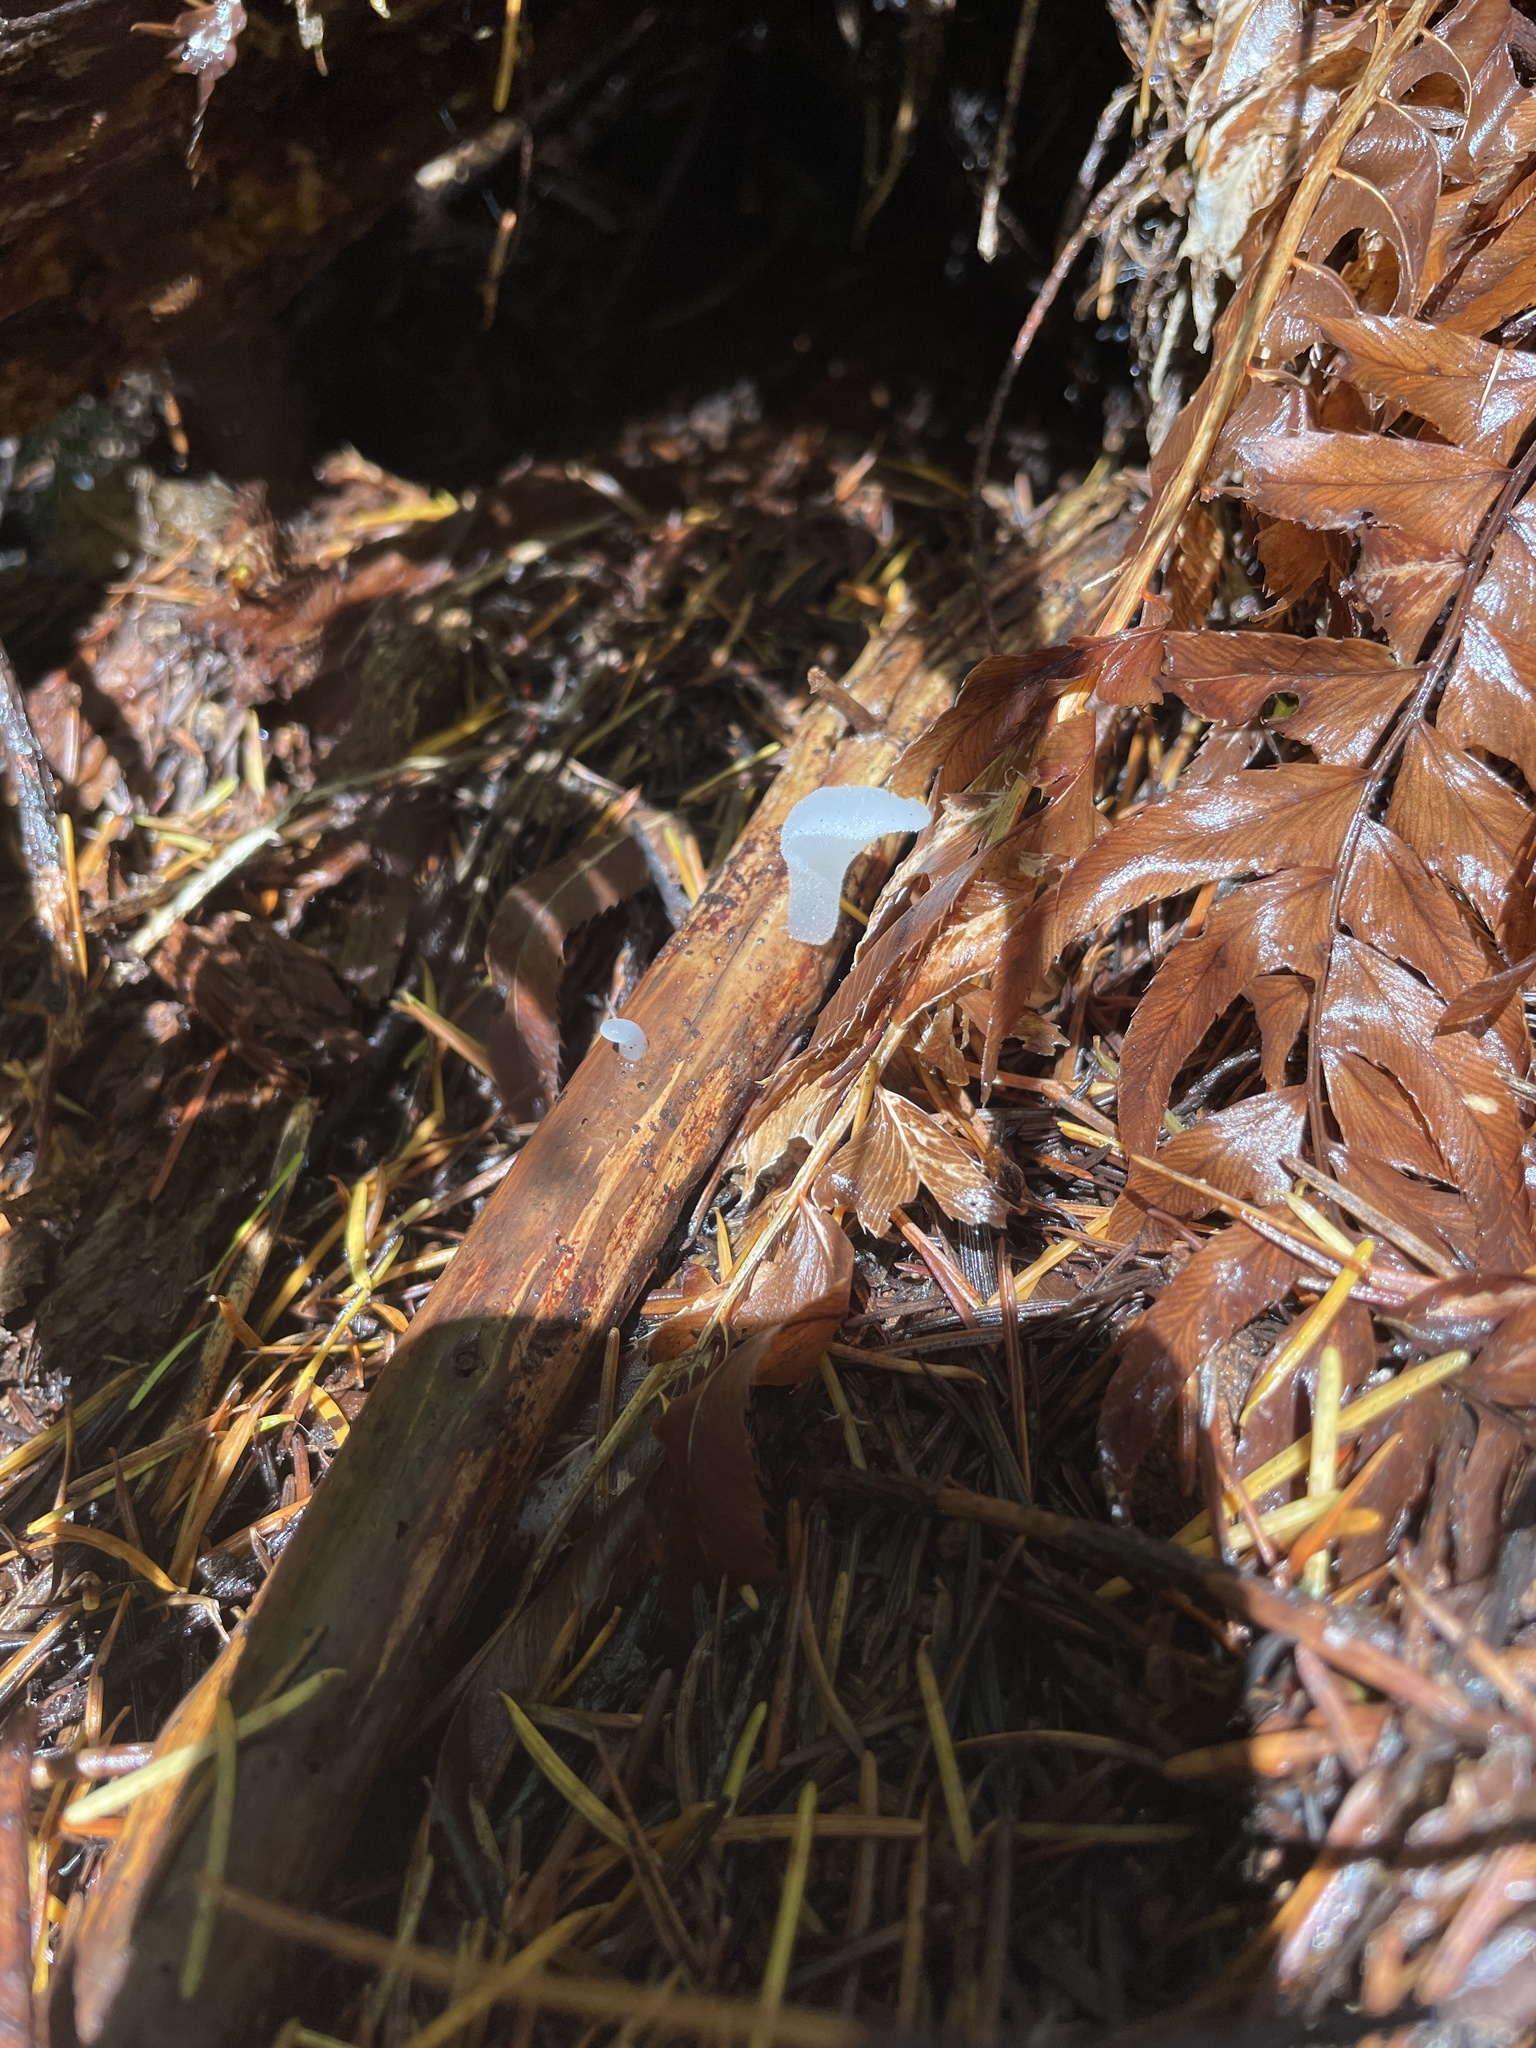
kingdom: Fungi
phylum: Basidiomycota
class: Agaricomycetes
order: Auriculariales
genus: Pseudohydnum
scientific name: Pseudohydnum gelatinosum
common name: Jelly tongue
